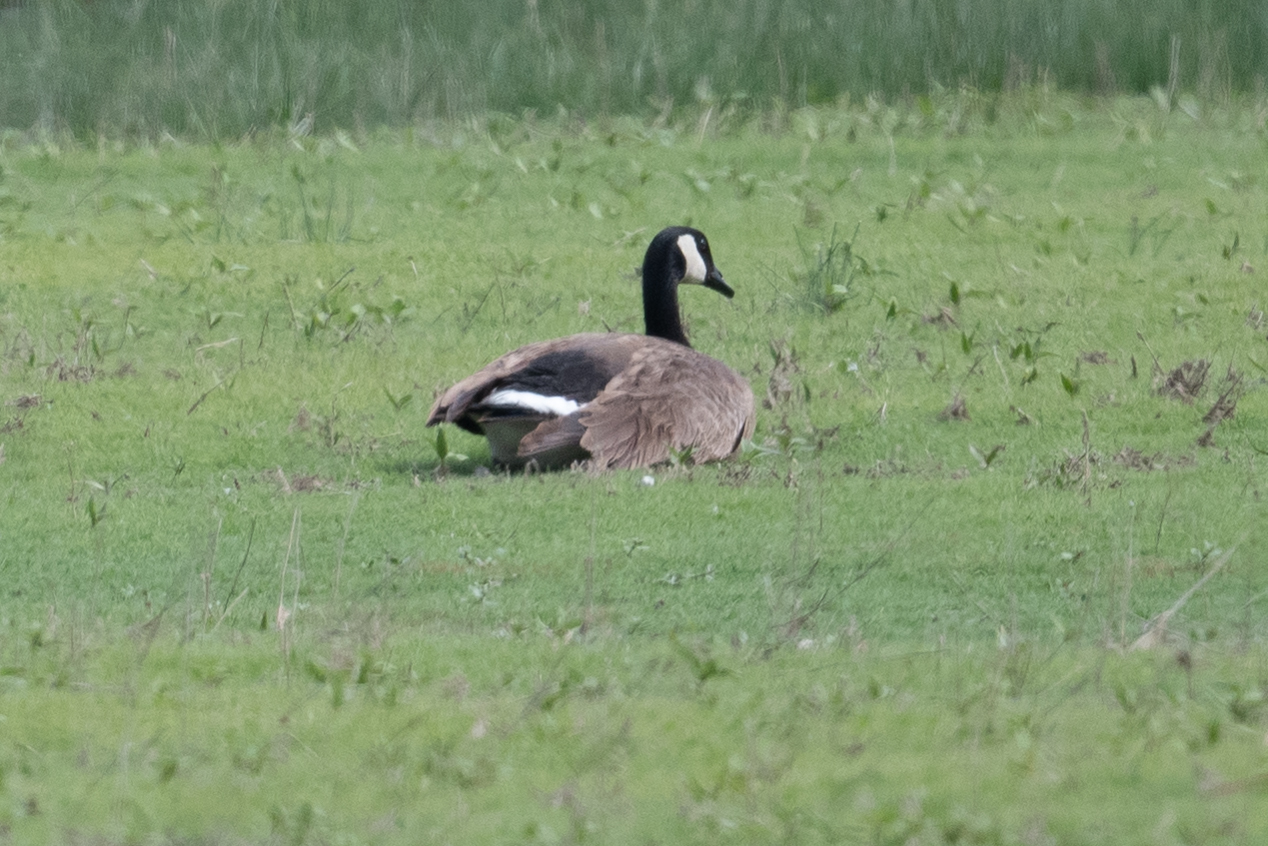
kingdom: Animalia
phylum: Chordata
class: Aves
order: Anseriformes
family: Anatidae
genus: Branta
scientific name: Branta canadensis
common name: Canada goose
